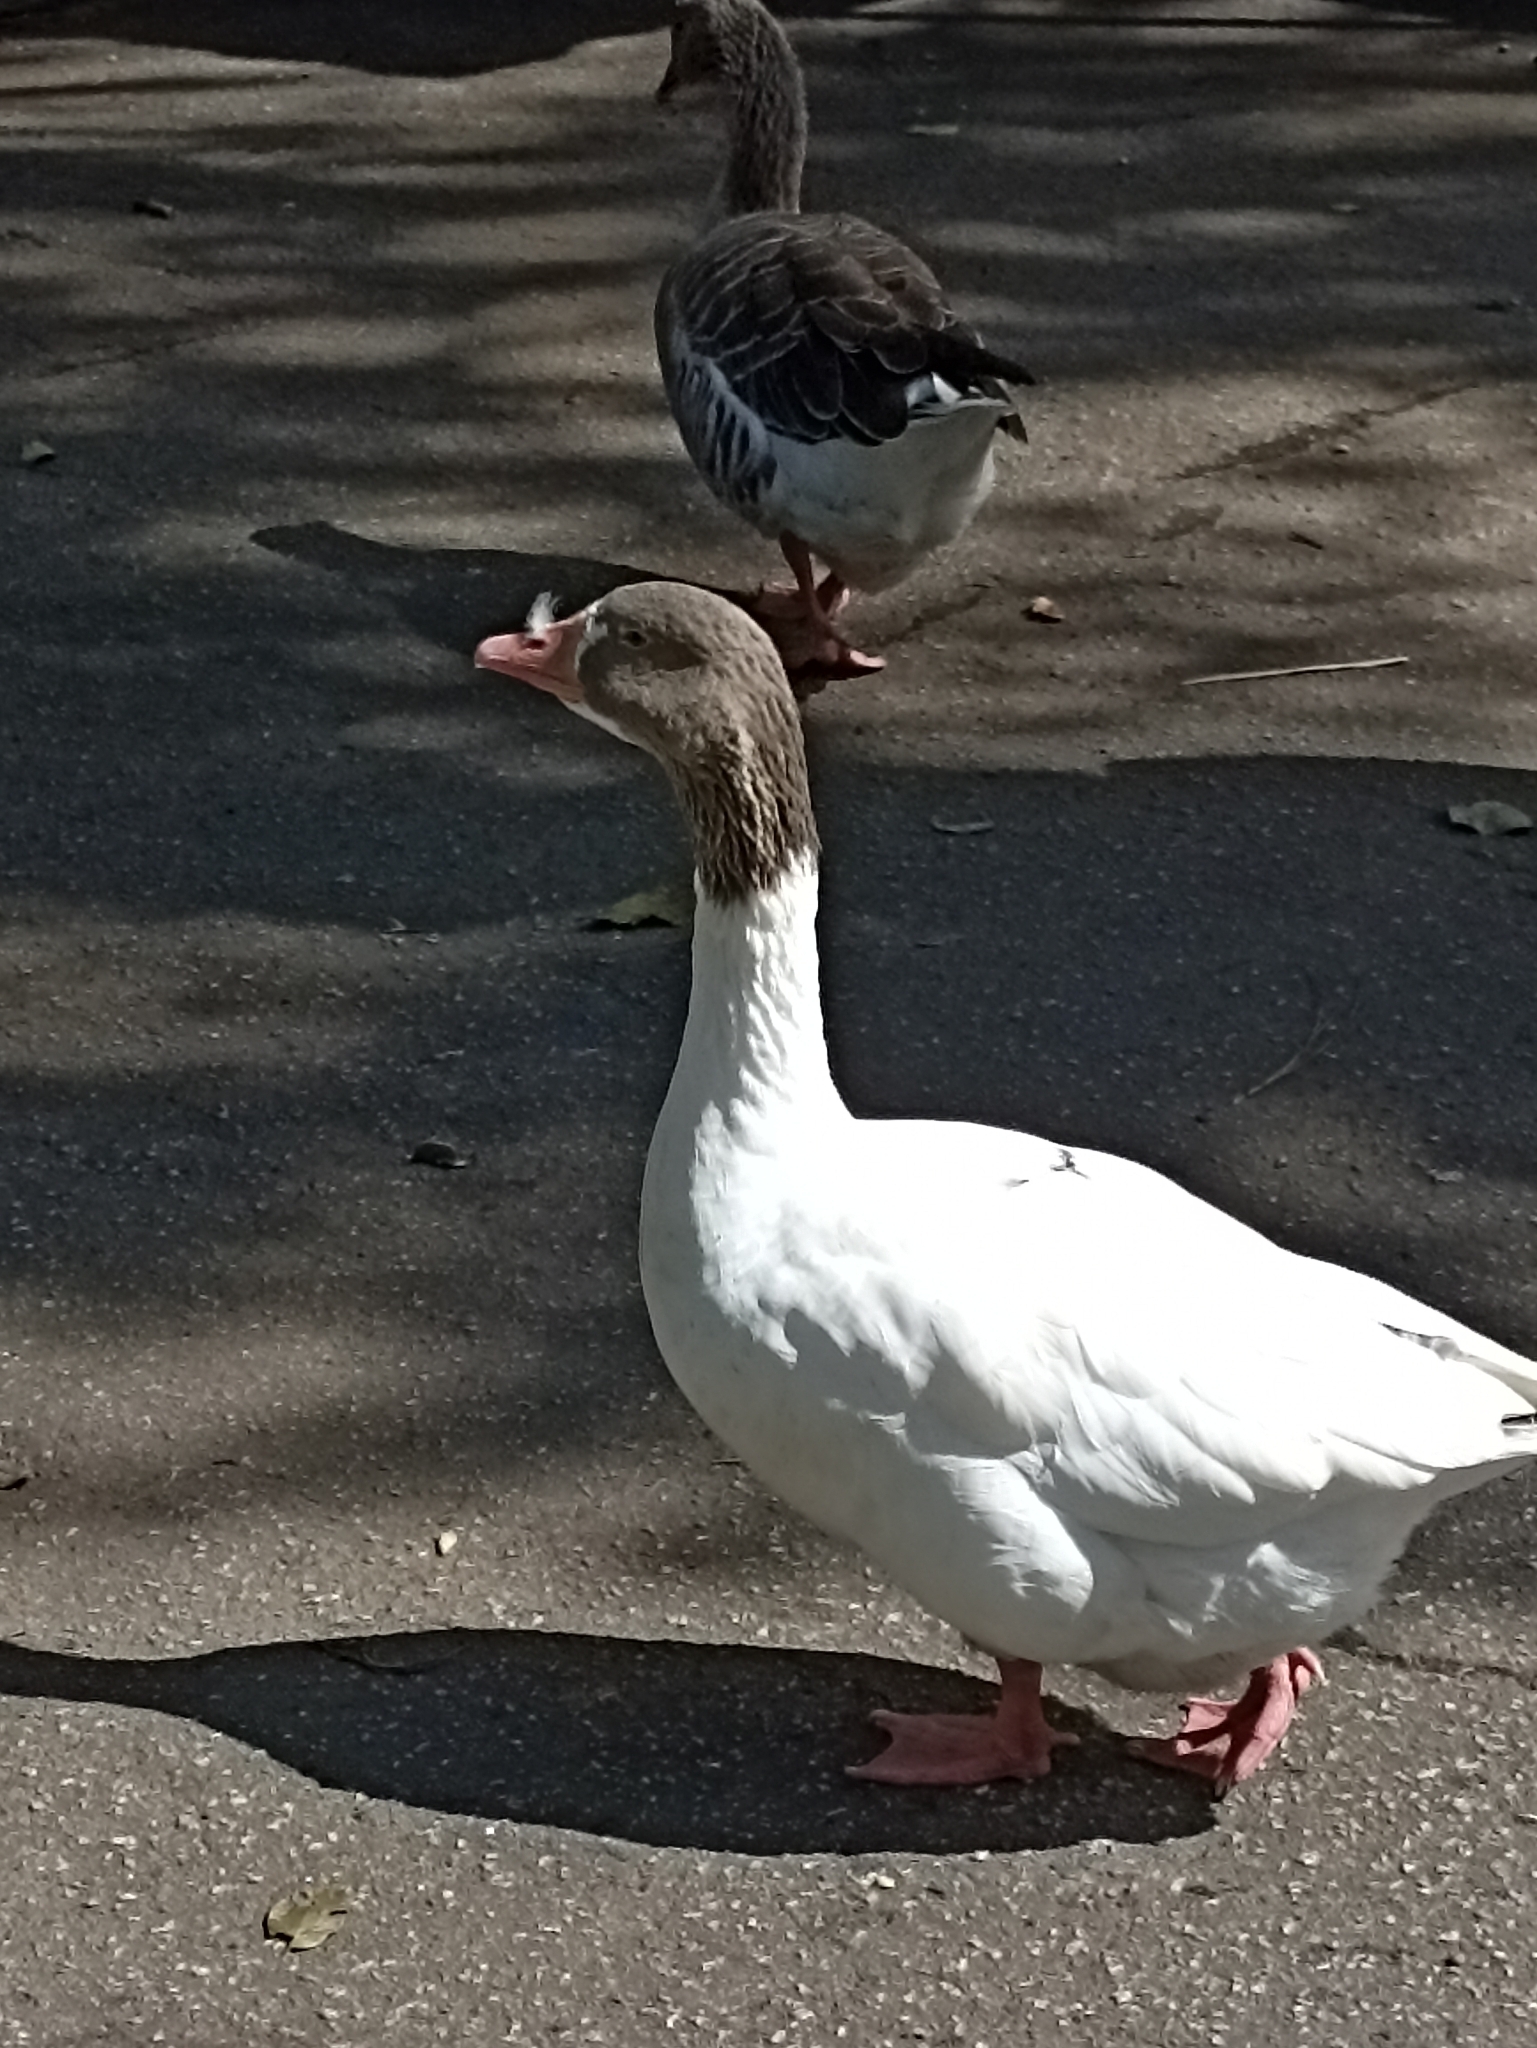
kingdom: Animalia
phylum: Chordata
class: Aves
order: Anseriformes
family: Anatidae
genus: Anser
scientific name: Anser anser
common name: Greylag goose
